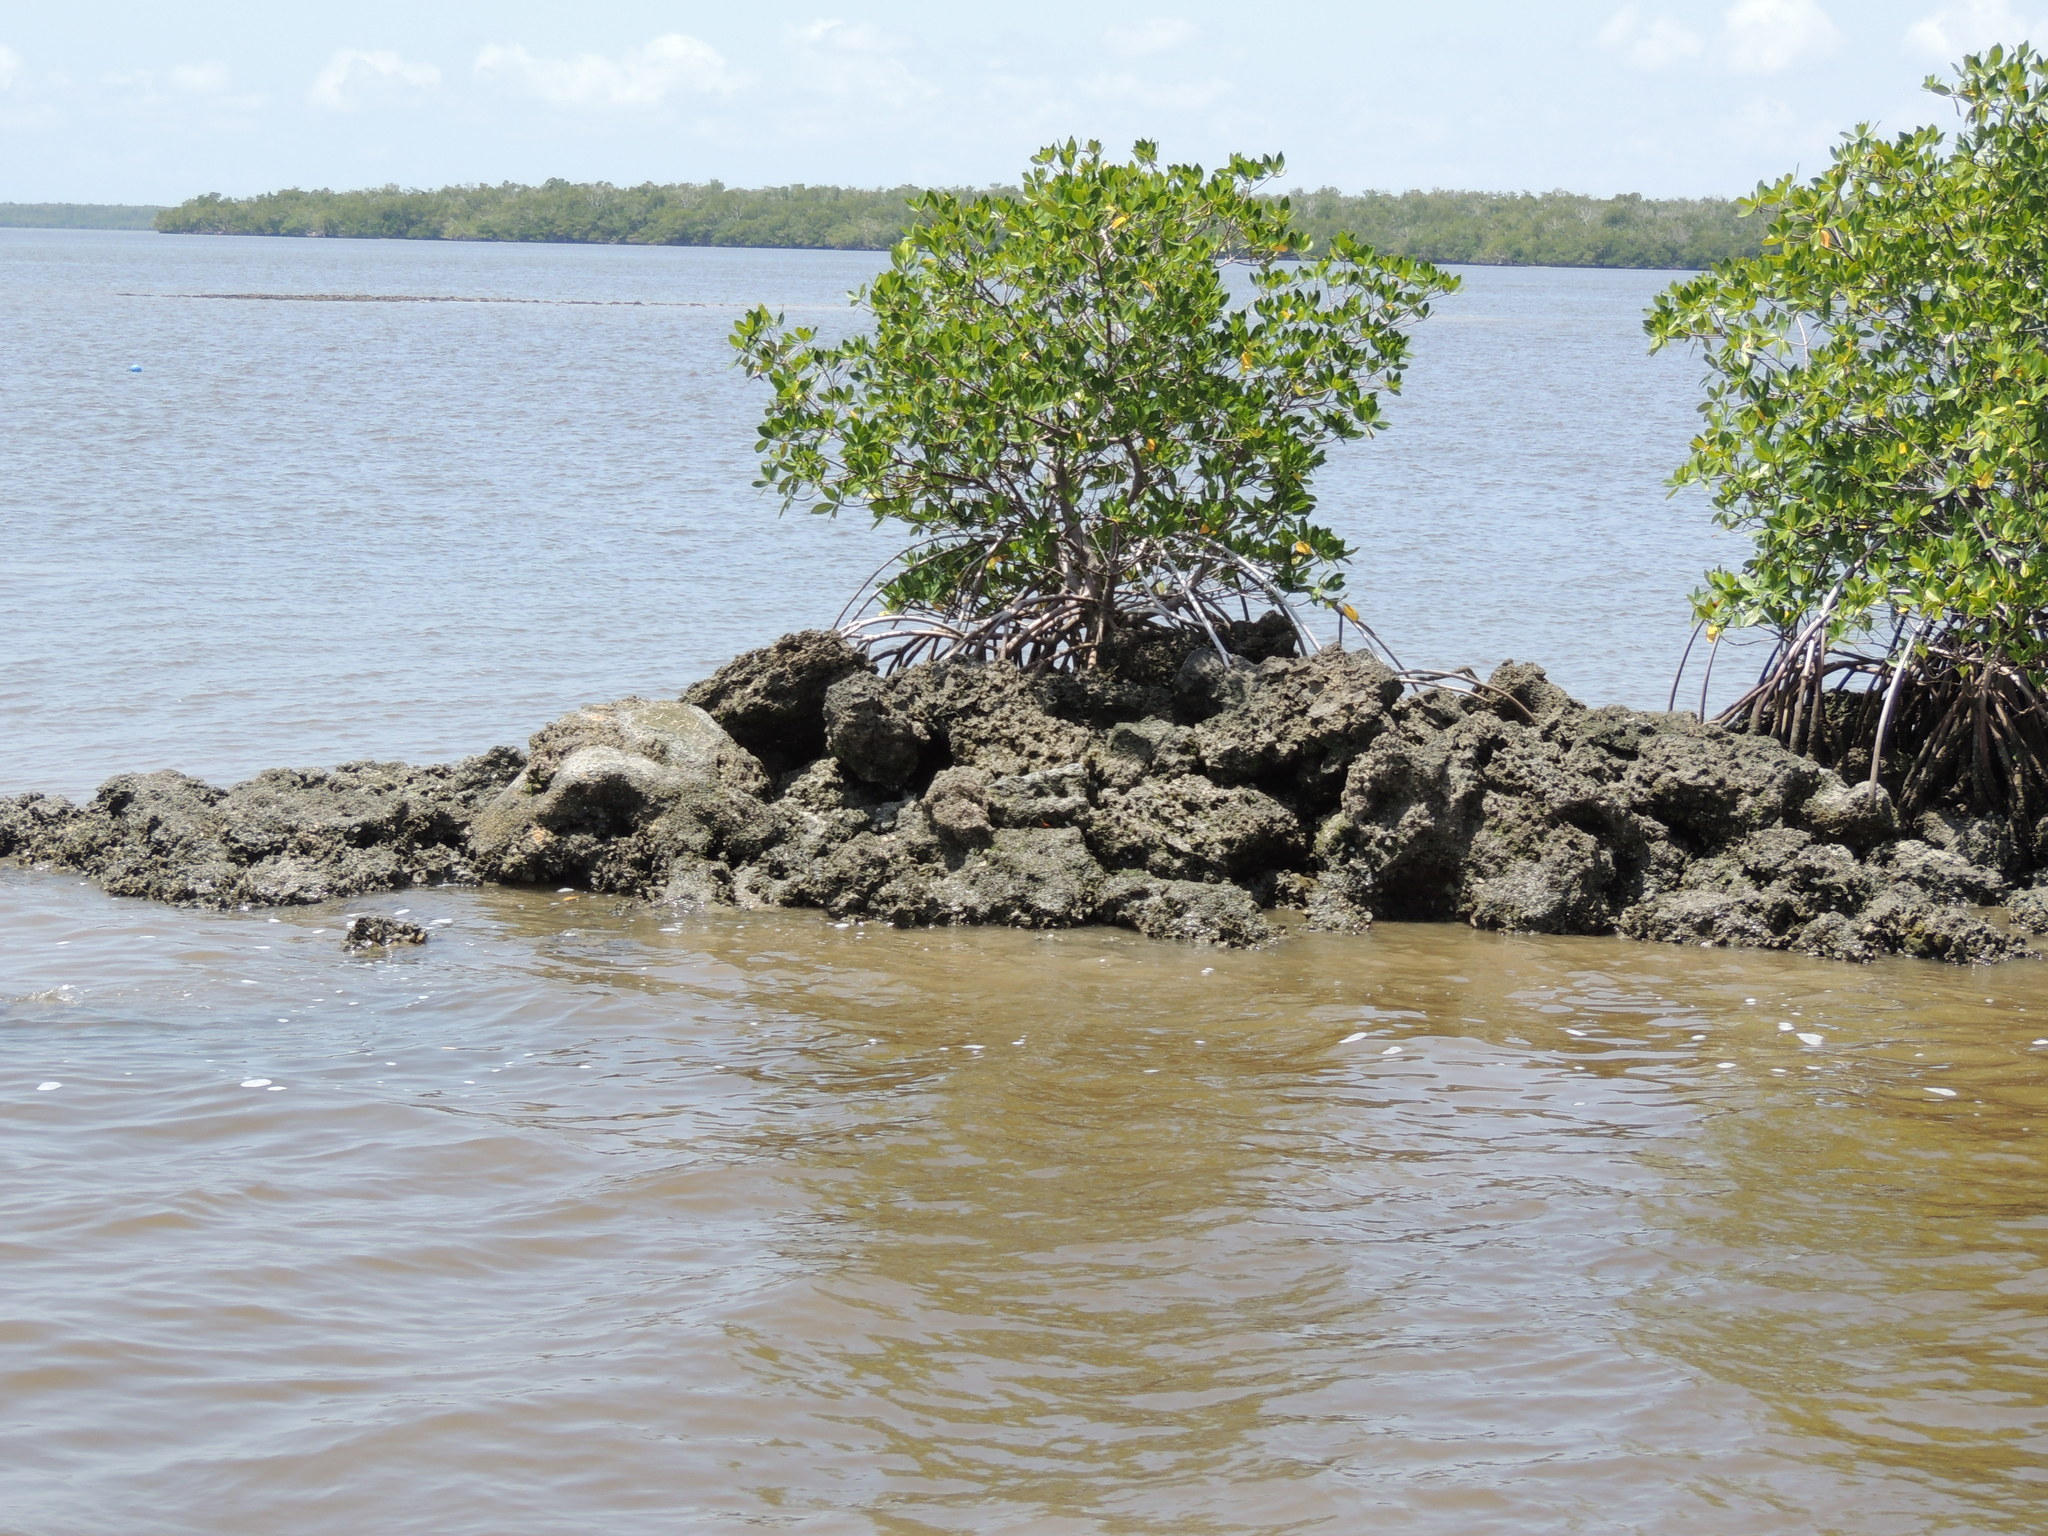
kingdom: Plantae
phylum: Tracheophyta
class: Magnoliopsida
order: Malpighiales
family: Rhizophoraceae
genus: Rhizophora
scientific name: Rhizophora mangle
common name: Red mangrove
